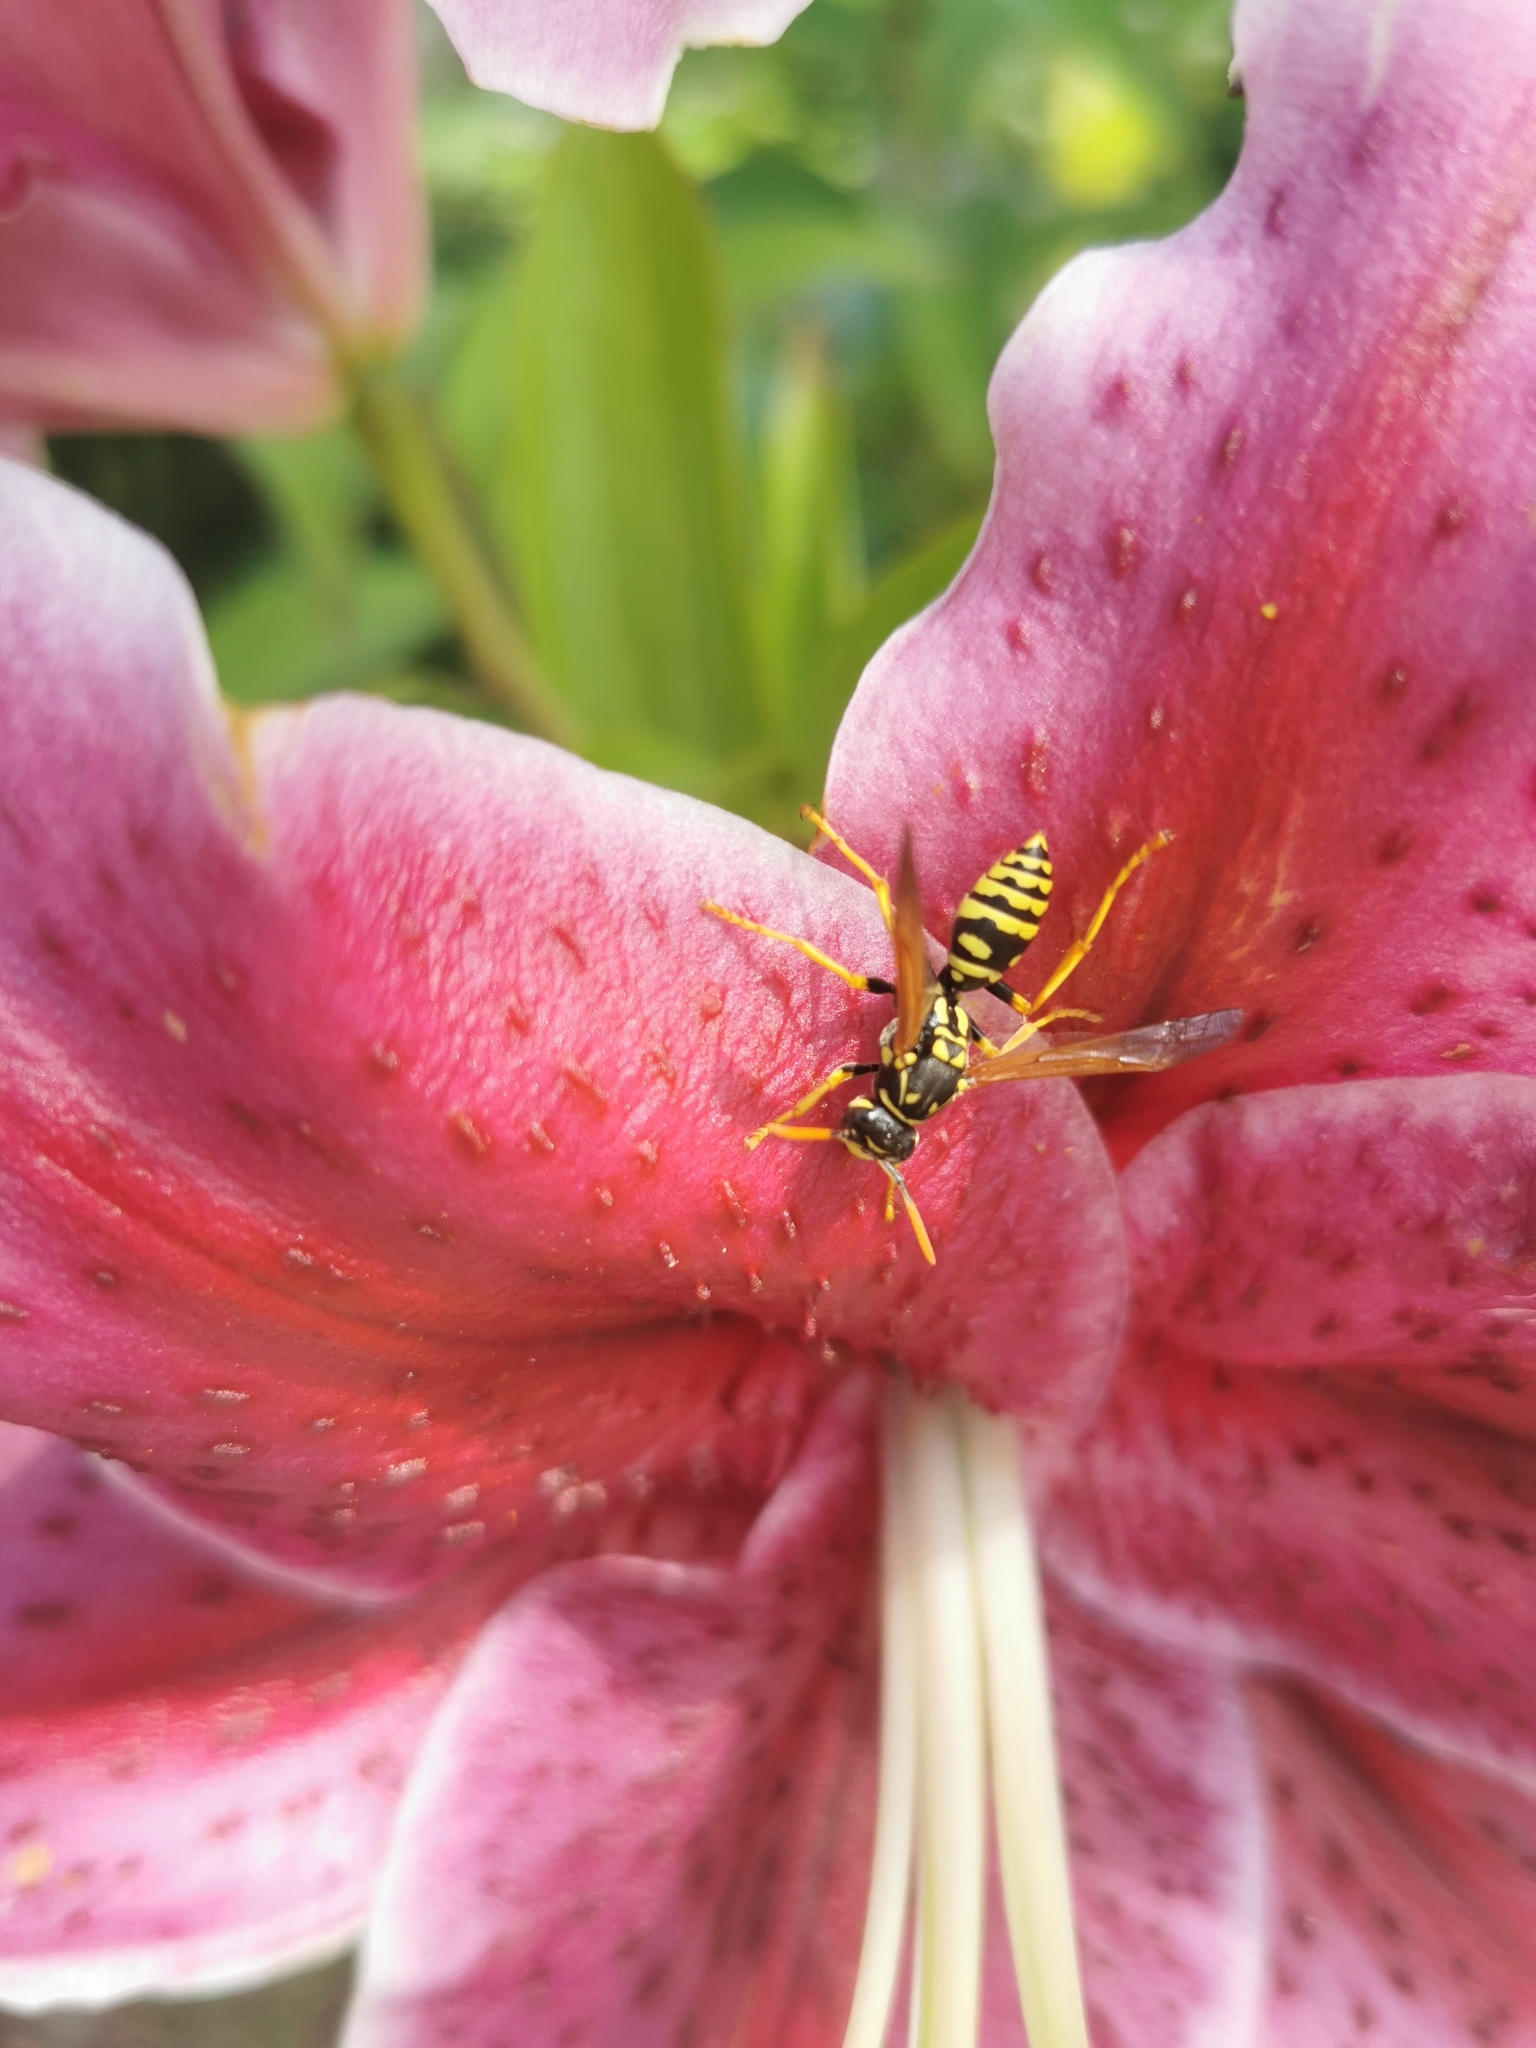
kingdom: Animalia
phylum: Arthropoda
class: Insecta
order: Hymenoptera
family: Eumenidae
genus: Polistes
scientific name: Polistes dominula
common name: Paper wasp
